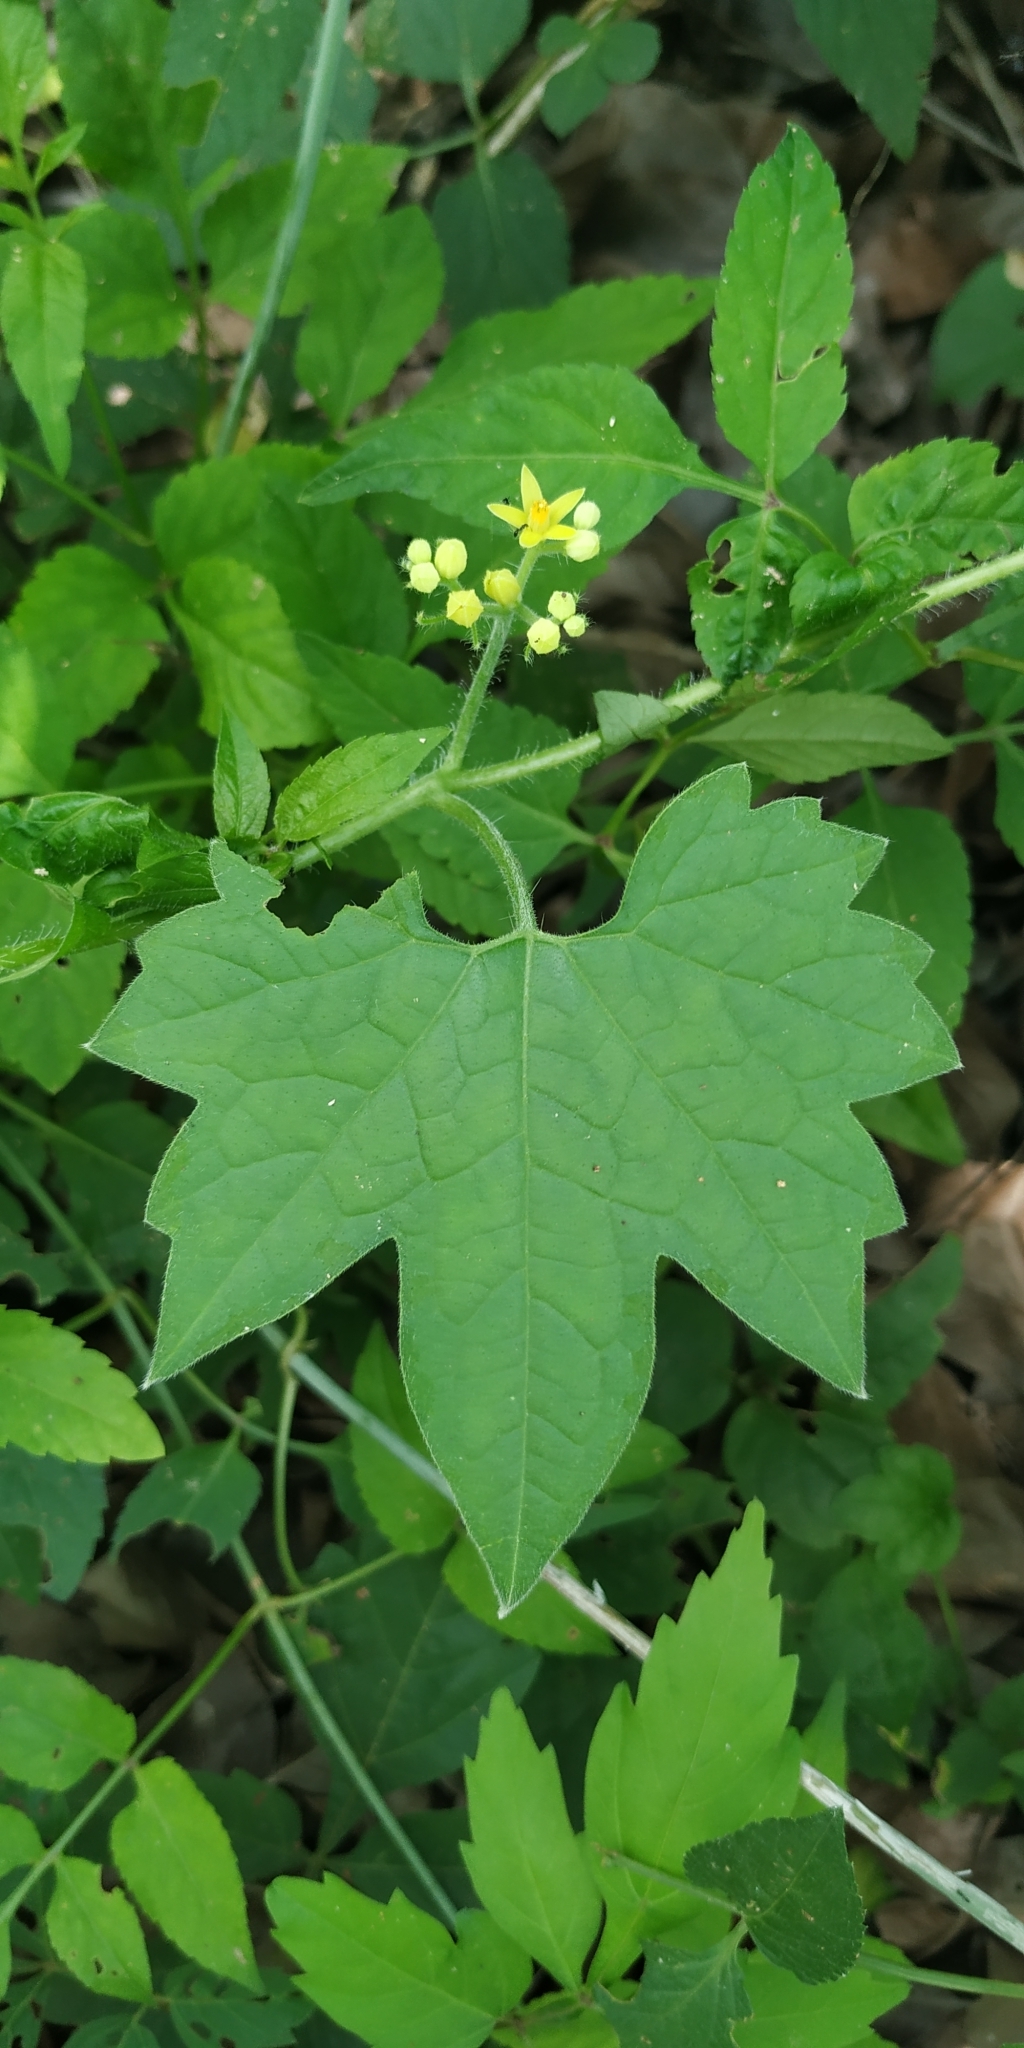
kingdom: Plantae
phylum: Tracheophyta
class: Magnoliopsida
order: Cornales
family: Loasaceae
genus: Gronovia
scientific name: Gronovia scandens
